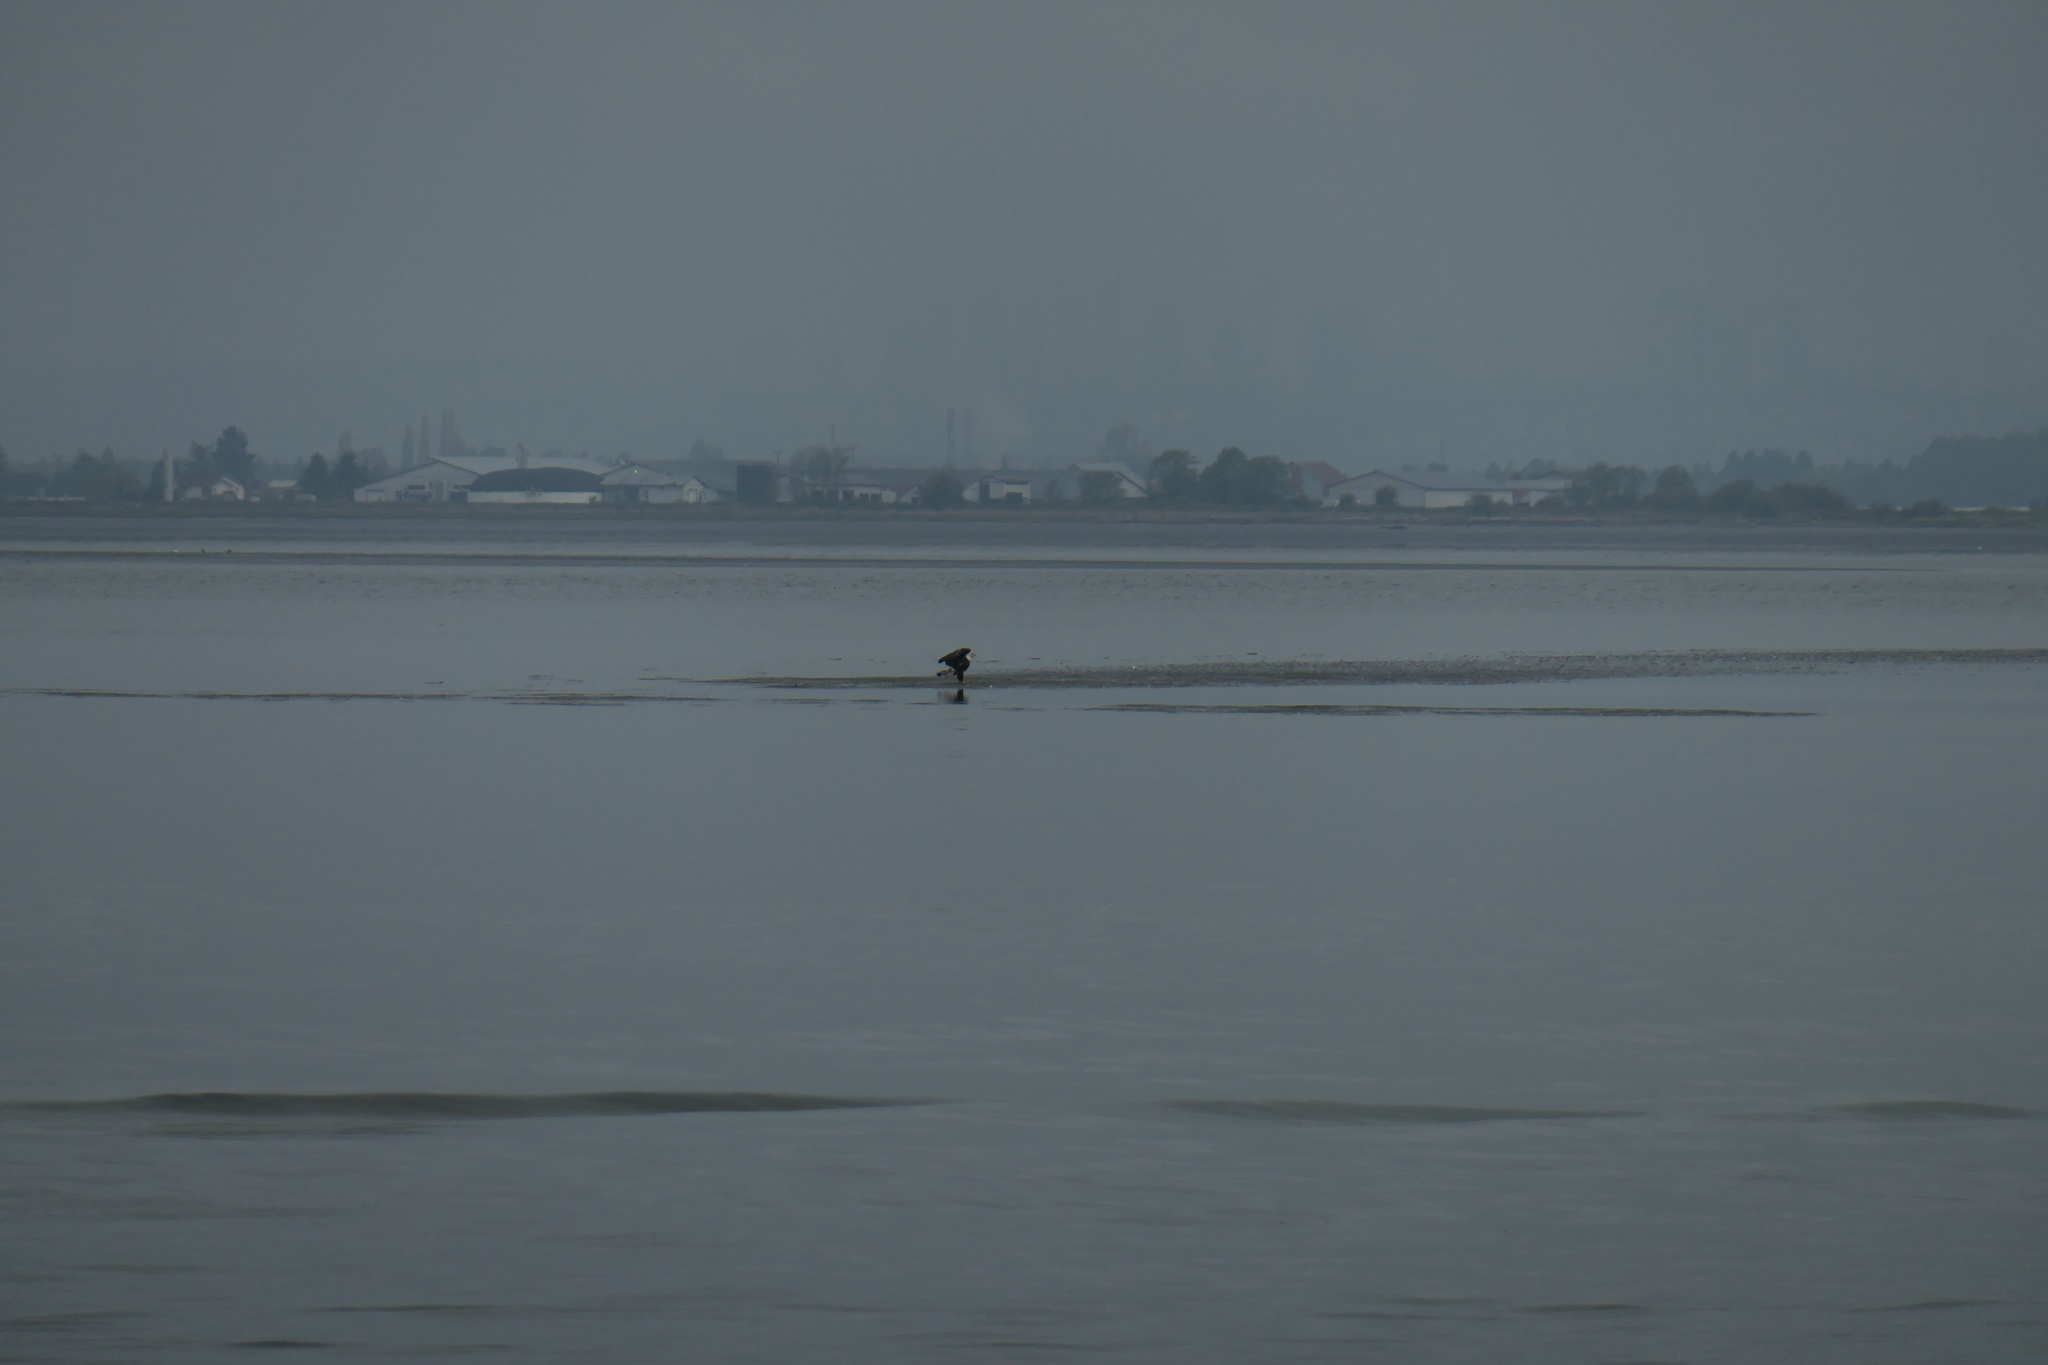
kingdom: Animalia
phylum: Chordata
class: Aves
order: Accipitriformes
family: Accipitridae
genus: Haliaeetus
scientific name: Haliaeetus leucocephalus
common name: Bald eagle
